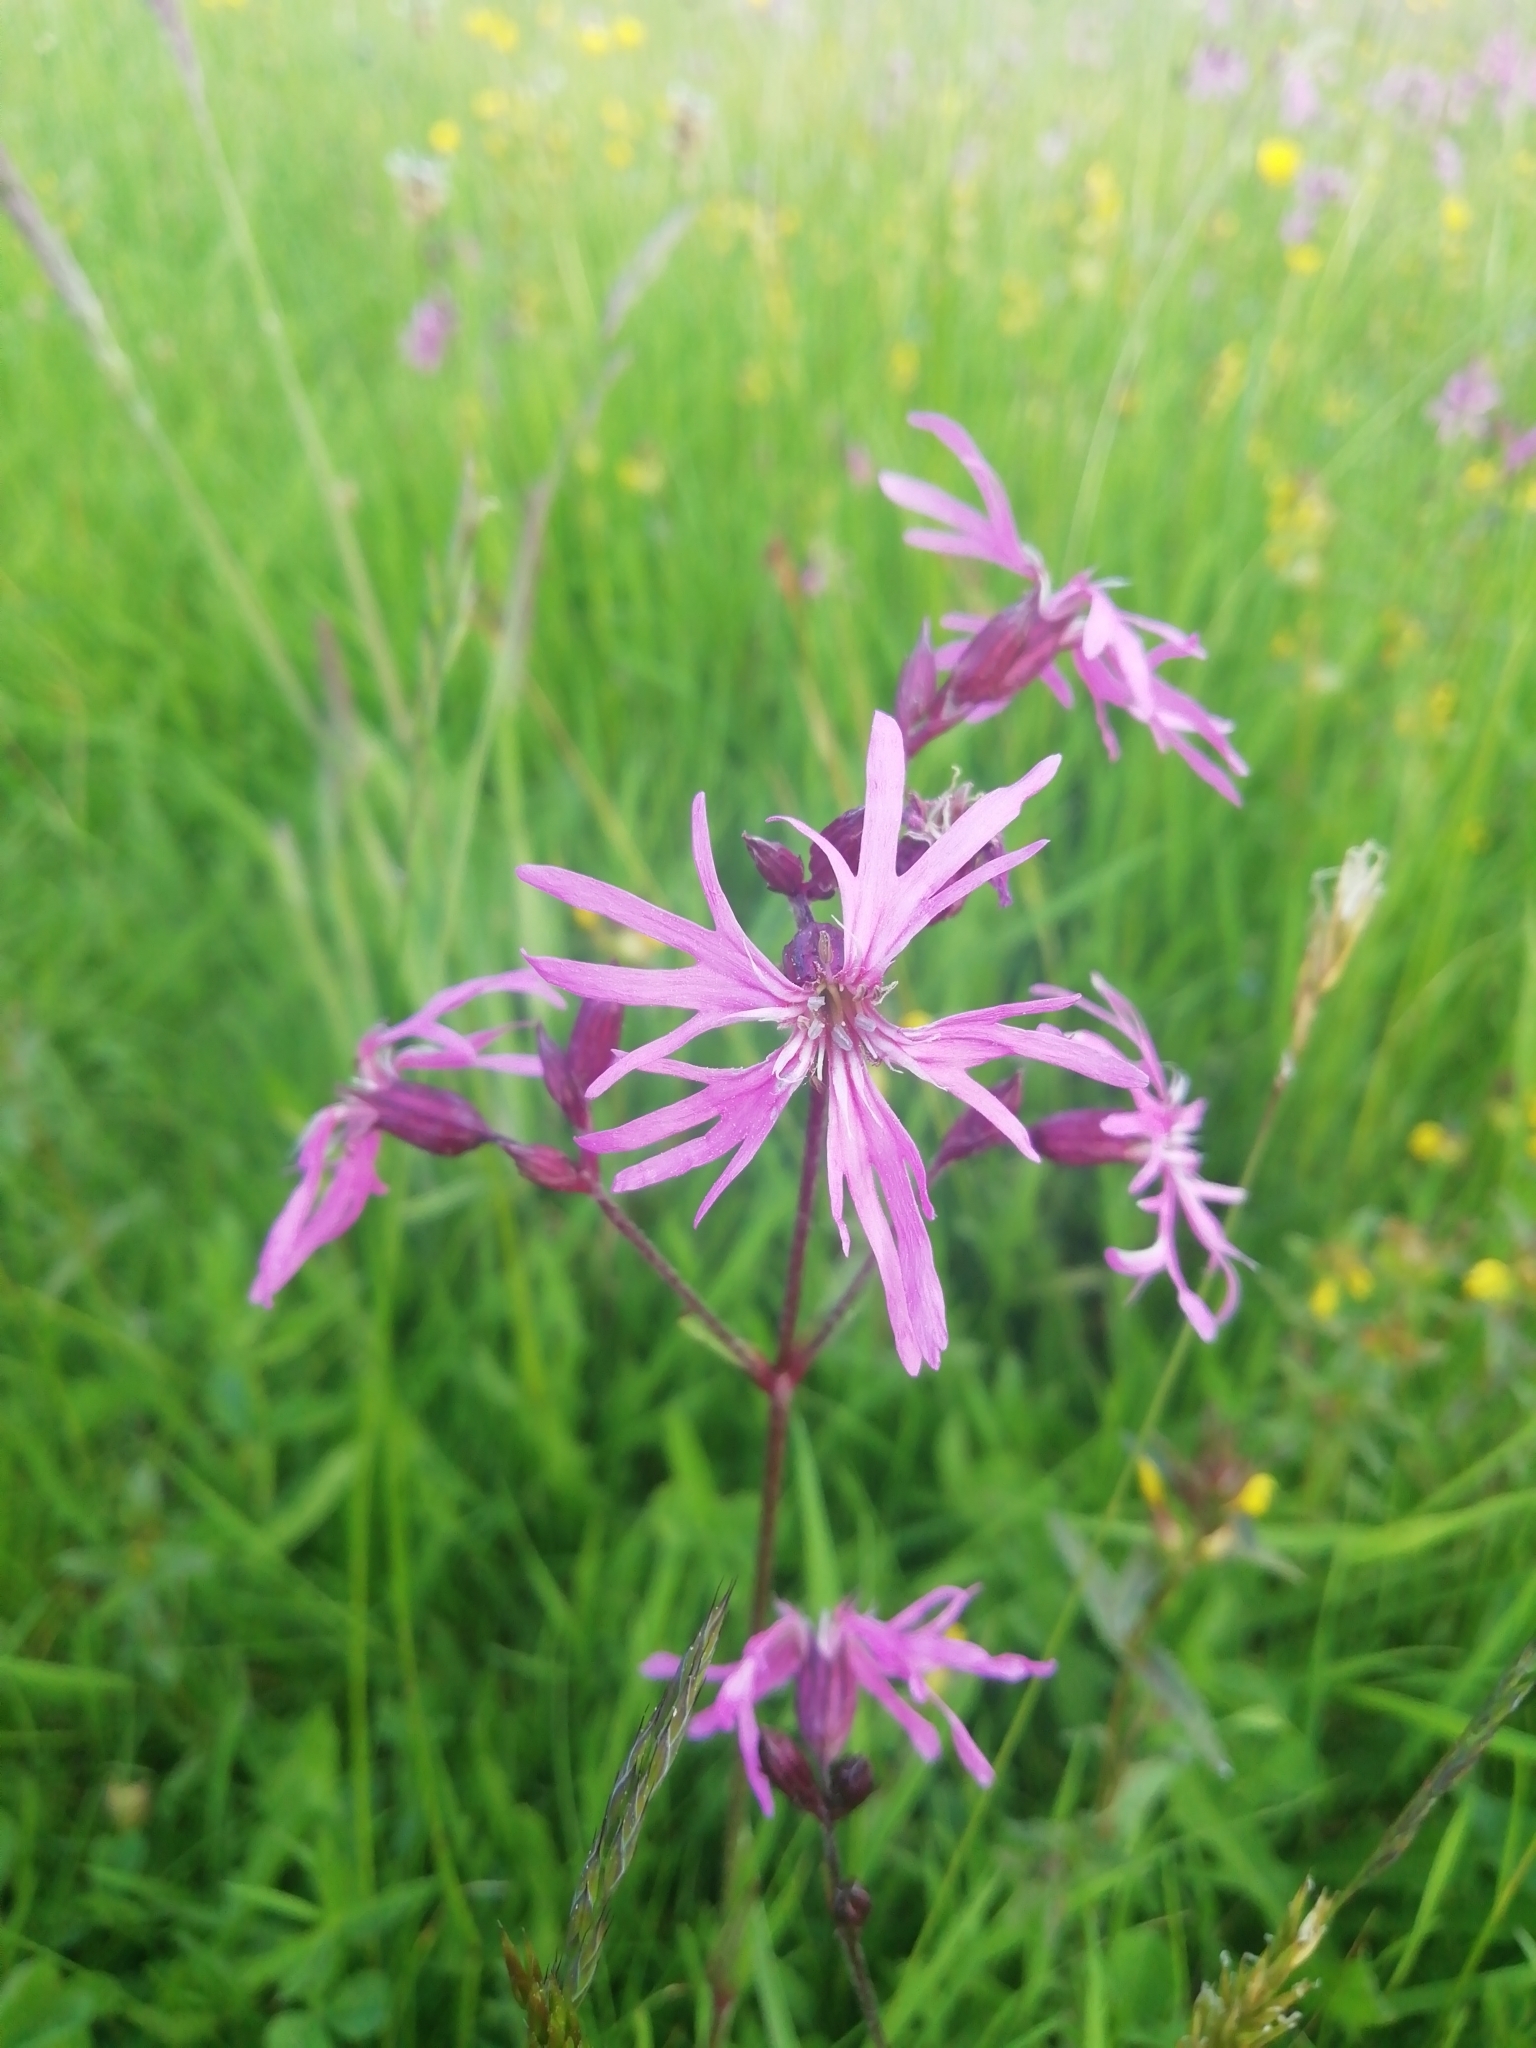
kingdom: Plantae
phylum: Tracheophyta
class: Magnoliopsida
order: Caryophyllales
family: Caryophyllaceae
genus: Silene
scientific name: Silene flos-cuculi
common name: Ragged-robin
